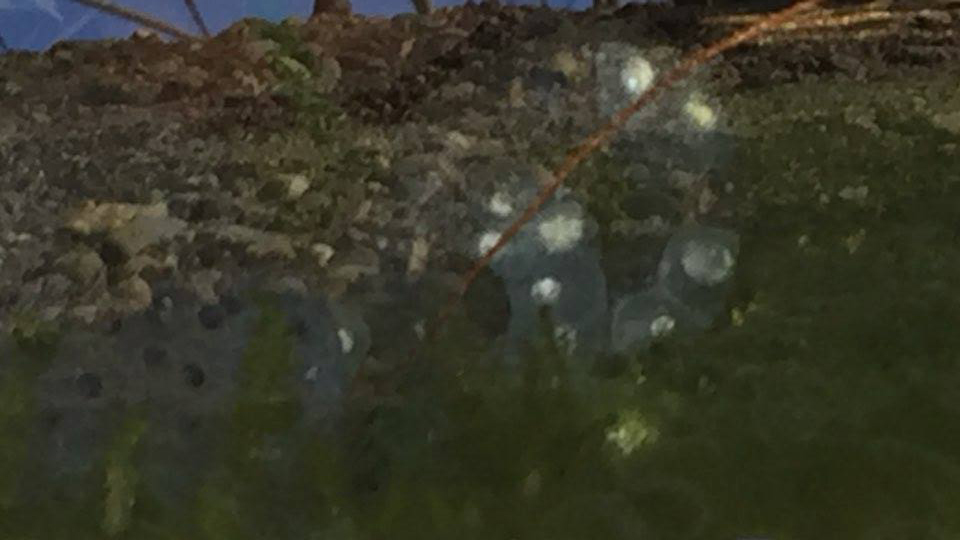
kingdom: Animalia
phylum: Chordata
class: Amphibia
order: Caudata
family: Hynobiidae
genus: Hynobius
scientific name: Hynobius leechii
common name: Gensan salamander
